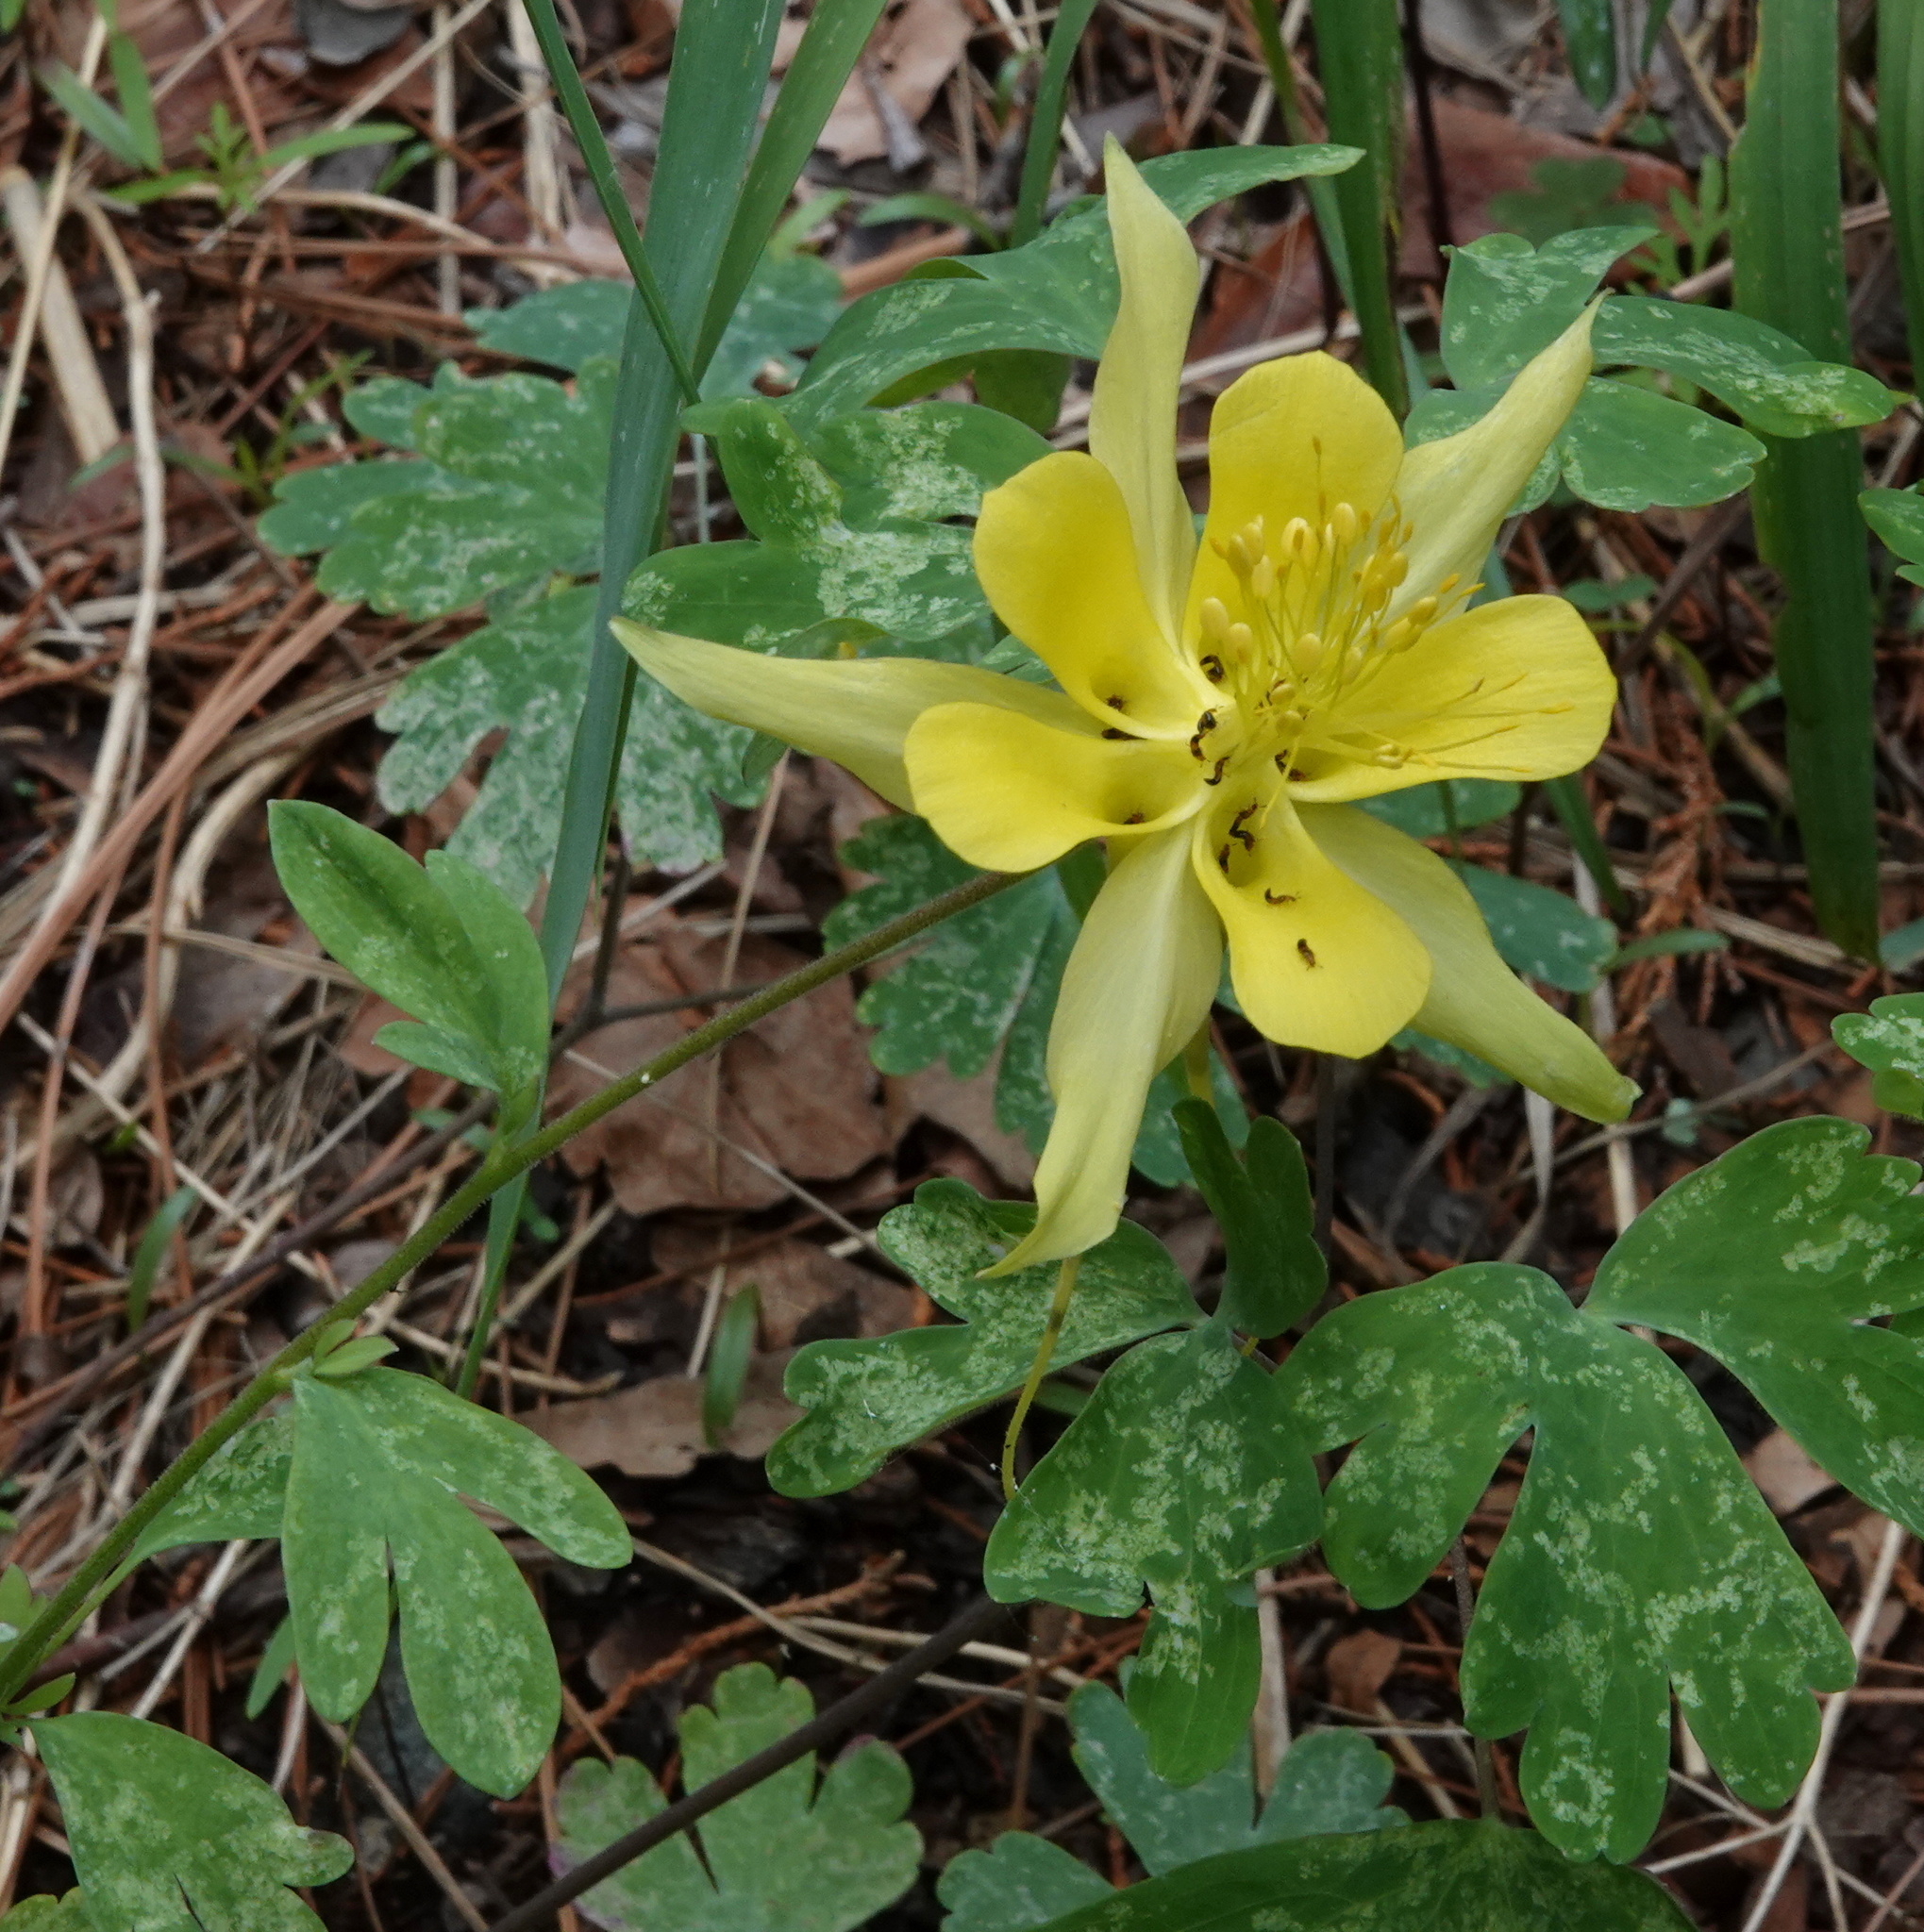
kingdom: Plantae
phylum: Tracheophyta
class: Magnoliopsida
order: Ranunculales
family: Ranunculaceae
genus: Aquilegia
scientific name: Aquilegia chrysantha
